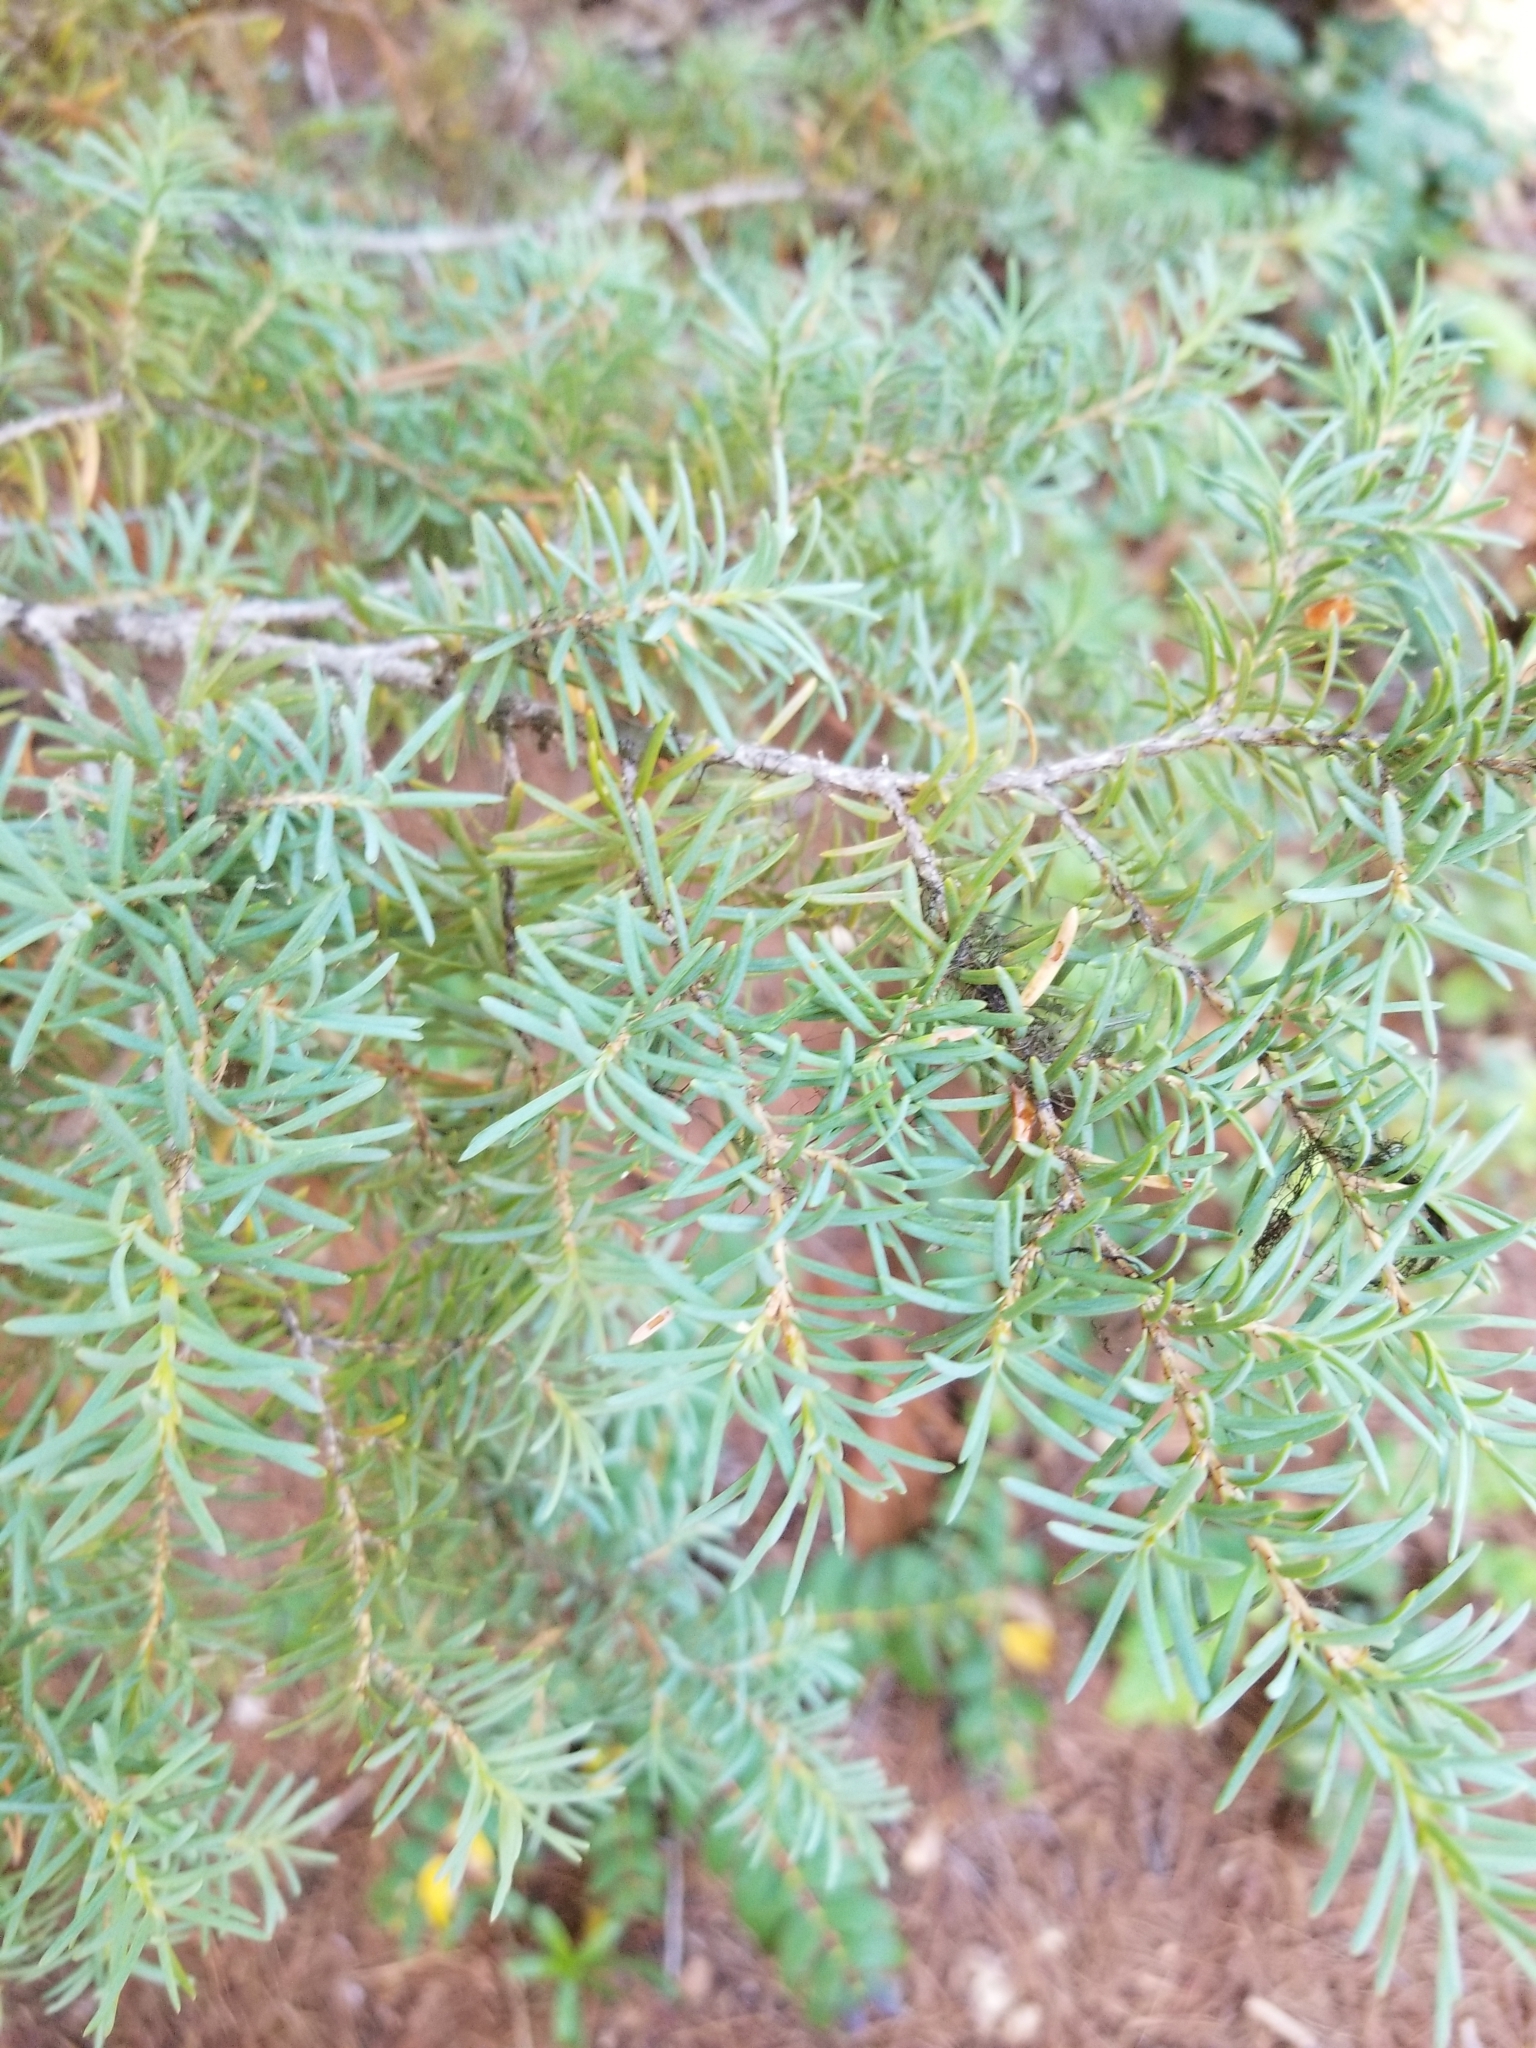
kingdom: Plantae
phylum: Tracheophyta
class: Pinopsida
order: Pinales
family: Pinaceae
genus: Tsuga
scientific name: Tsuga mertensiana
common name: Mountain hemlock
